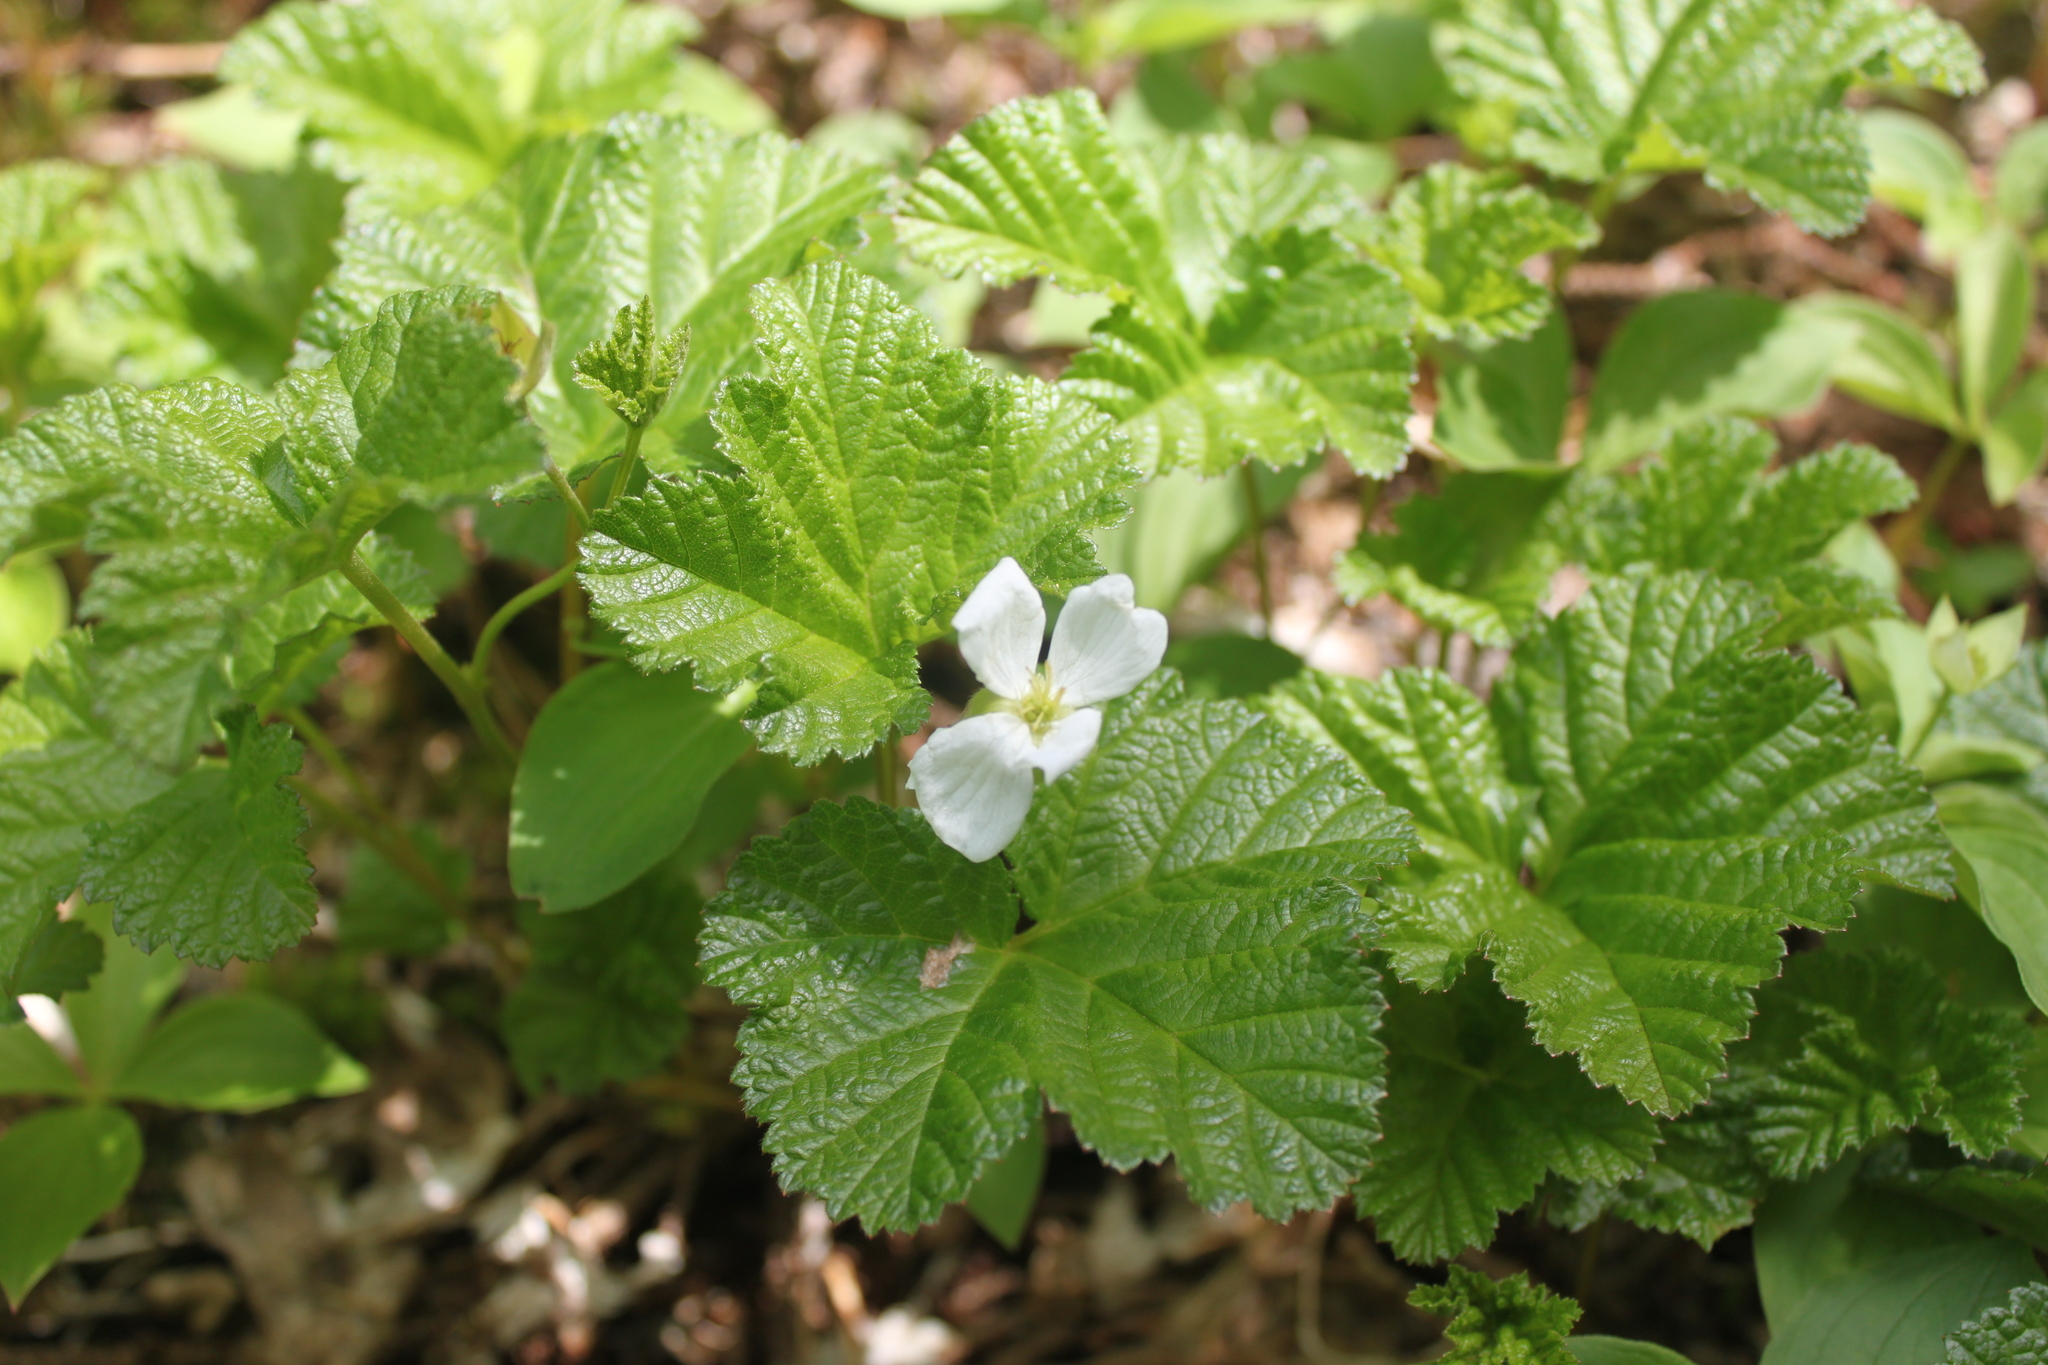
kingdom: Plantae
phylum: Tracheophyta
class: Magnoliopsida
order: Rosales
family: Rosaceae
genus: Rubus
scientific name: Rubus chamaemorus
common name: Cloudberry
